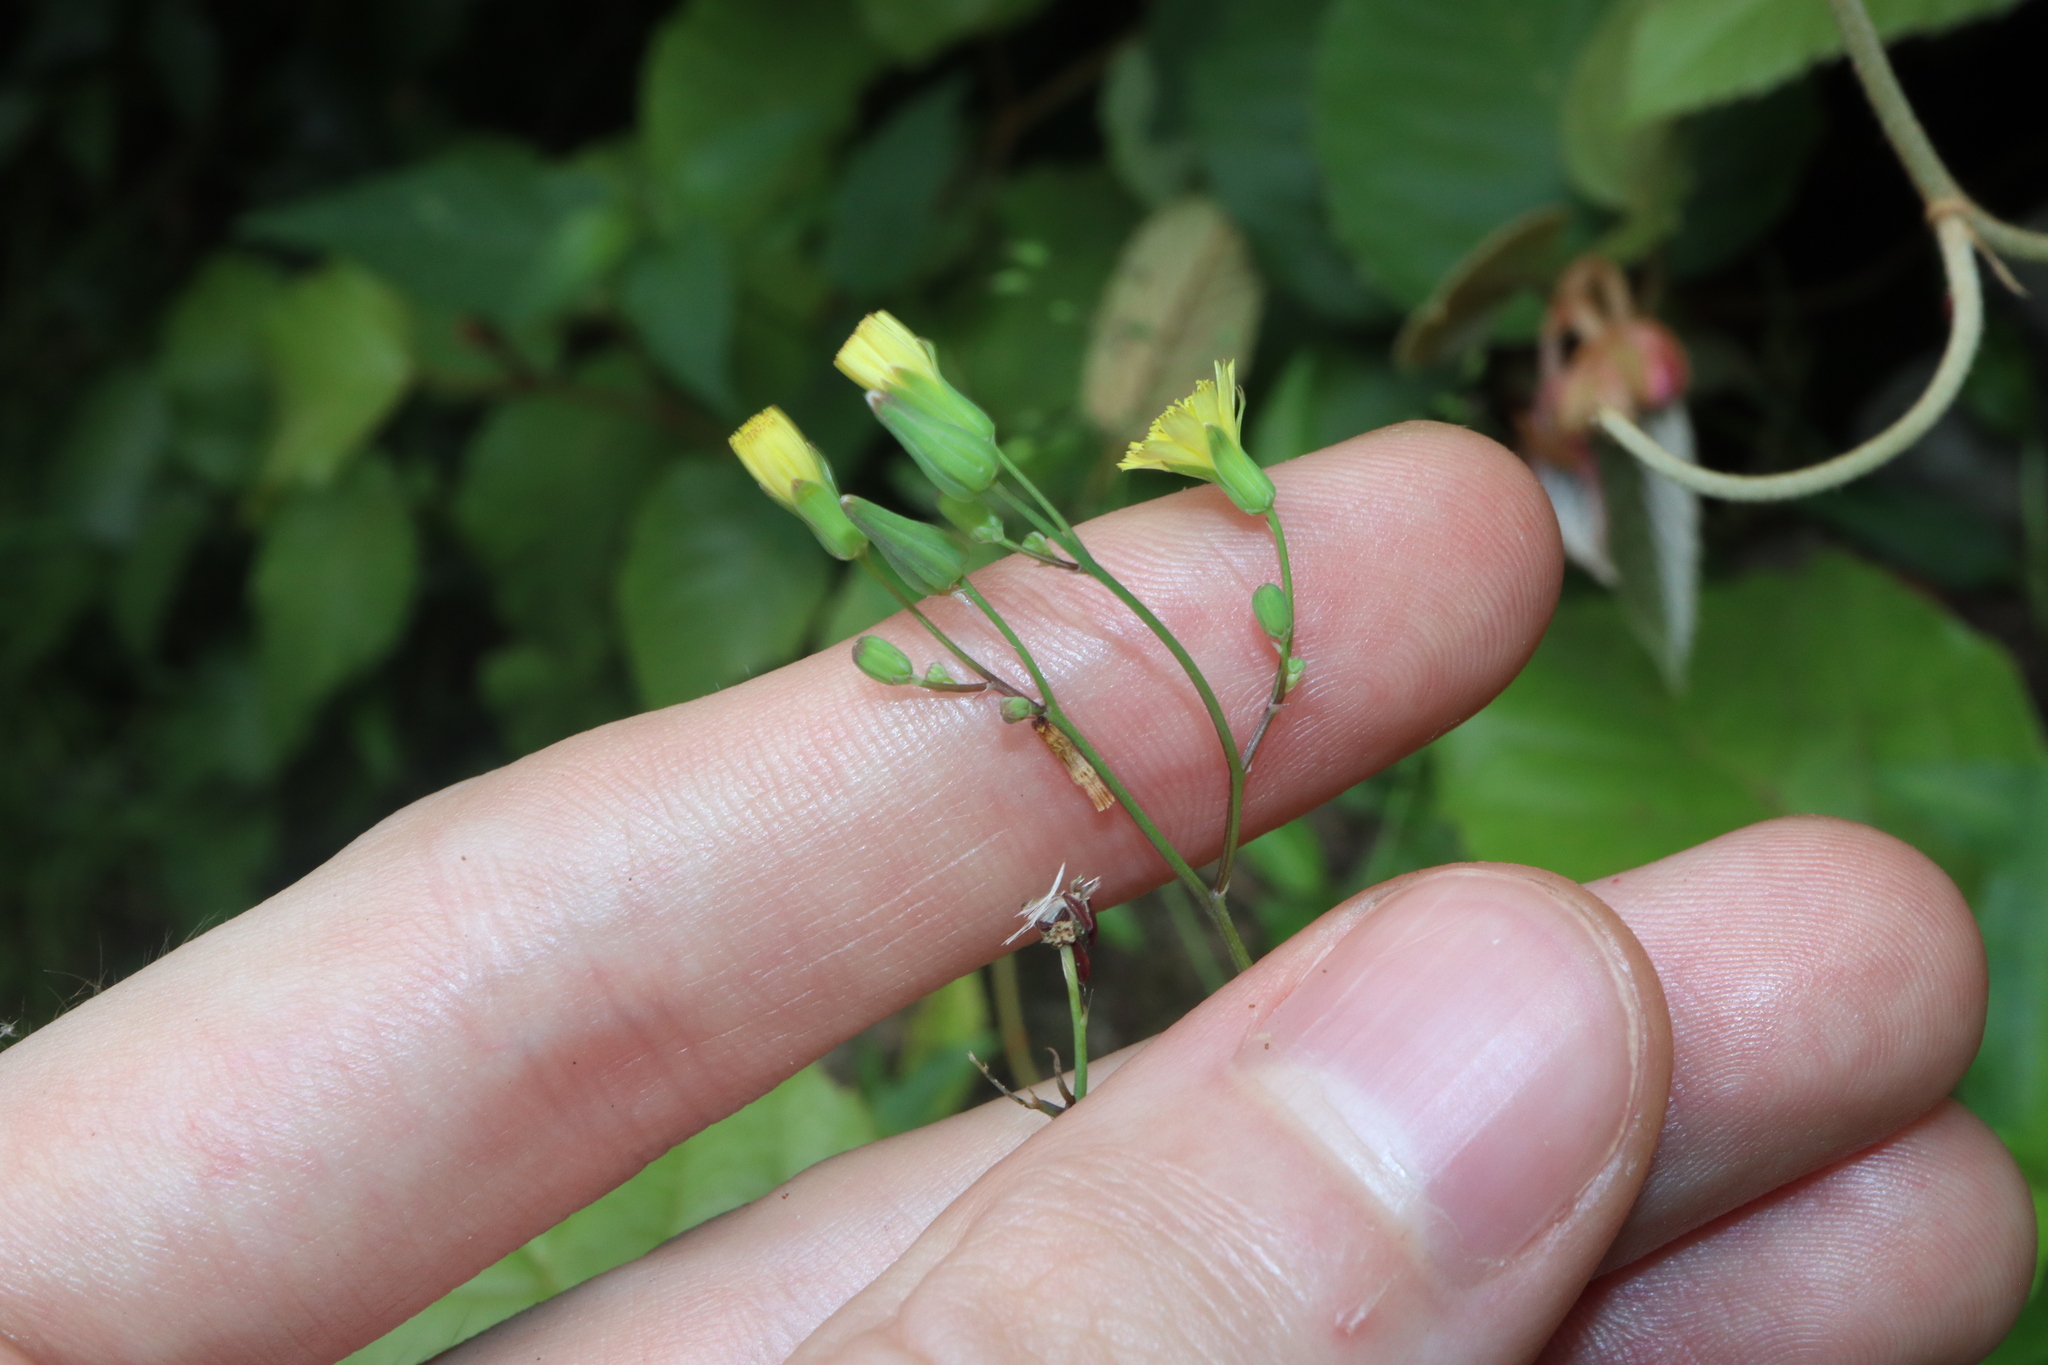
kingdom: Plantae
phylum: Tracheophyta
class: Magnoliopsida
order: Asterales
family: Asteraceae
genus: Youngia
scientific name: Youngia japonica
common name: Oriental false hawksbeard
